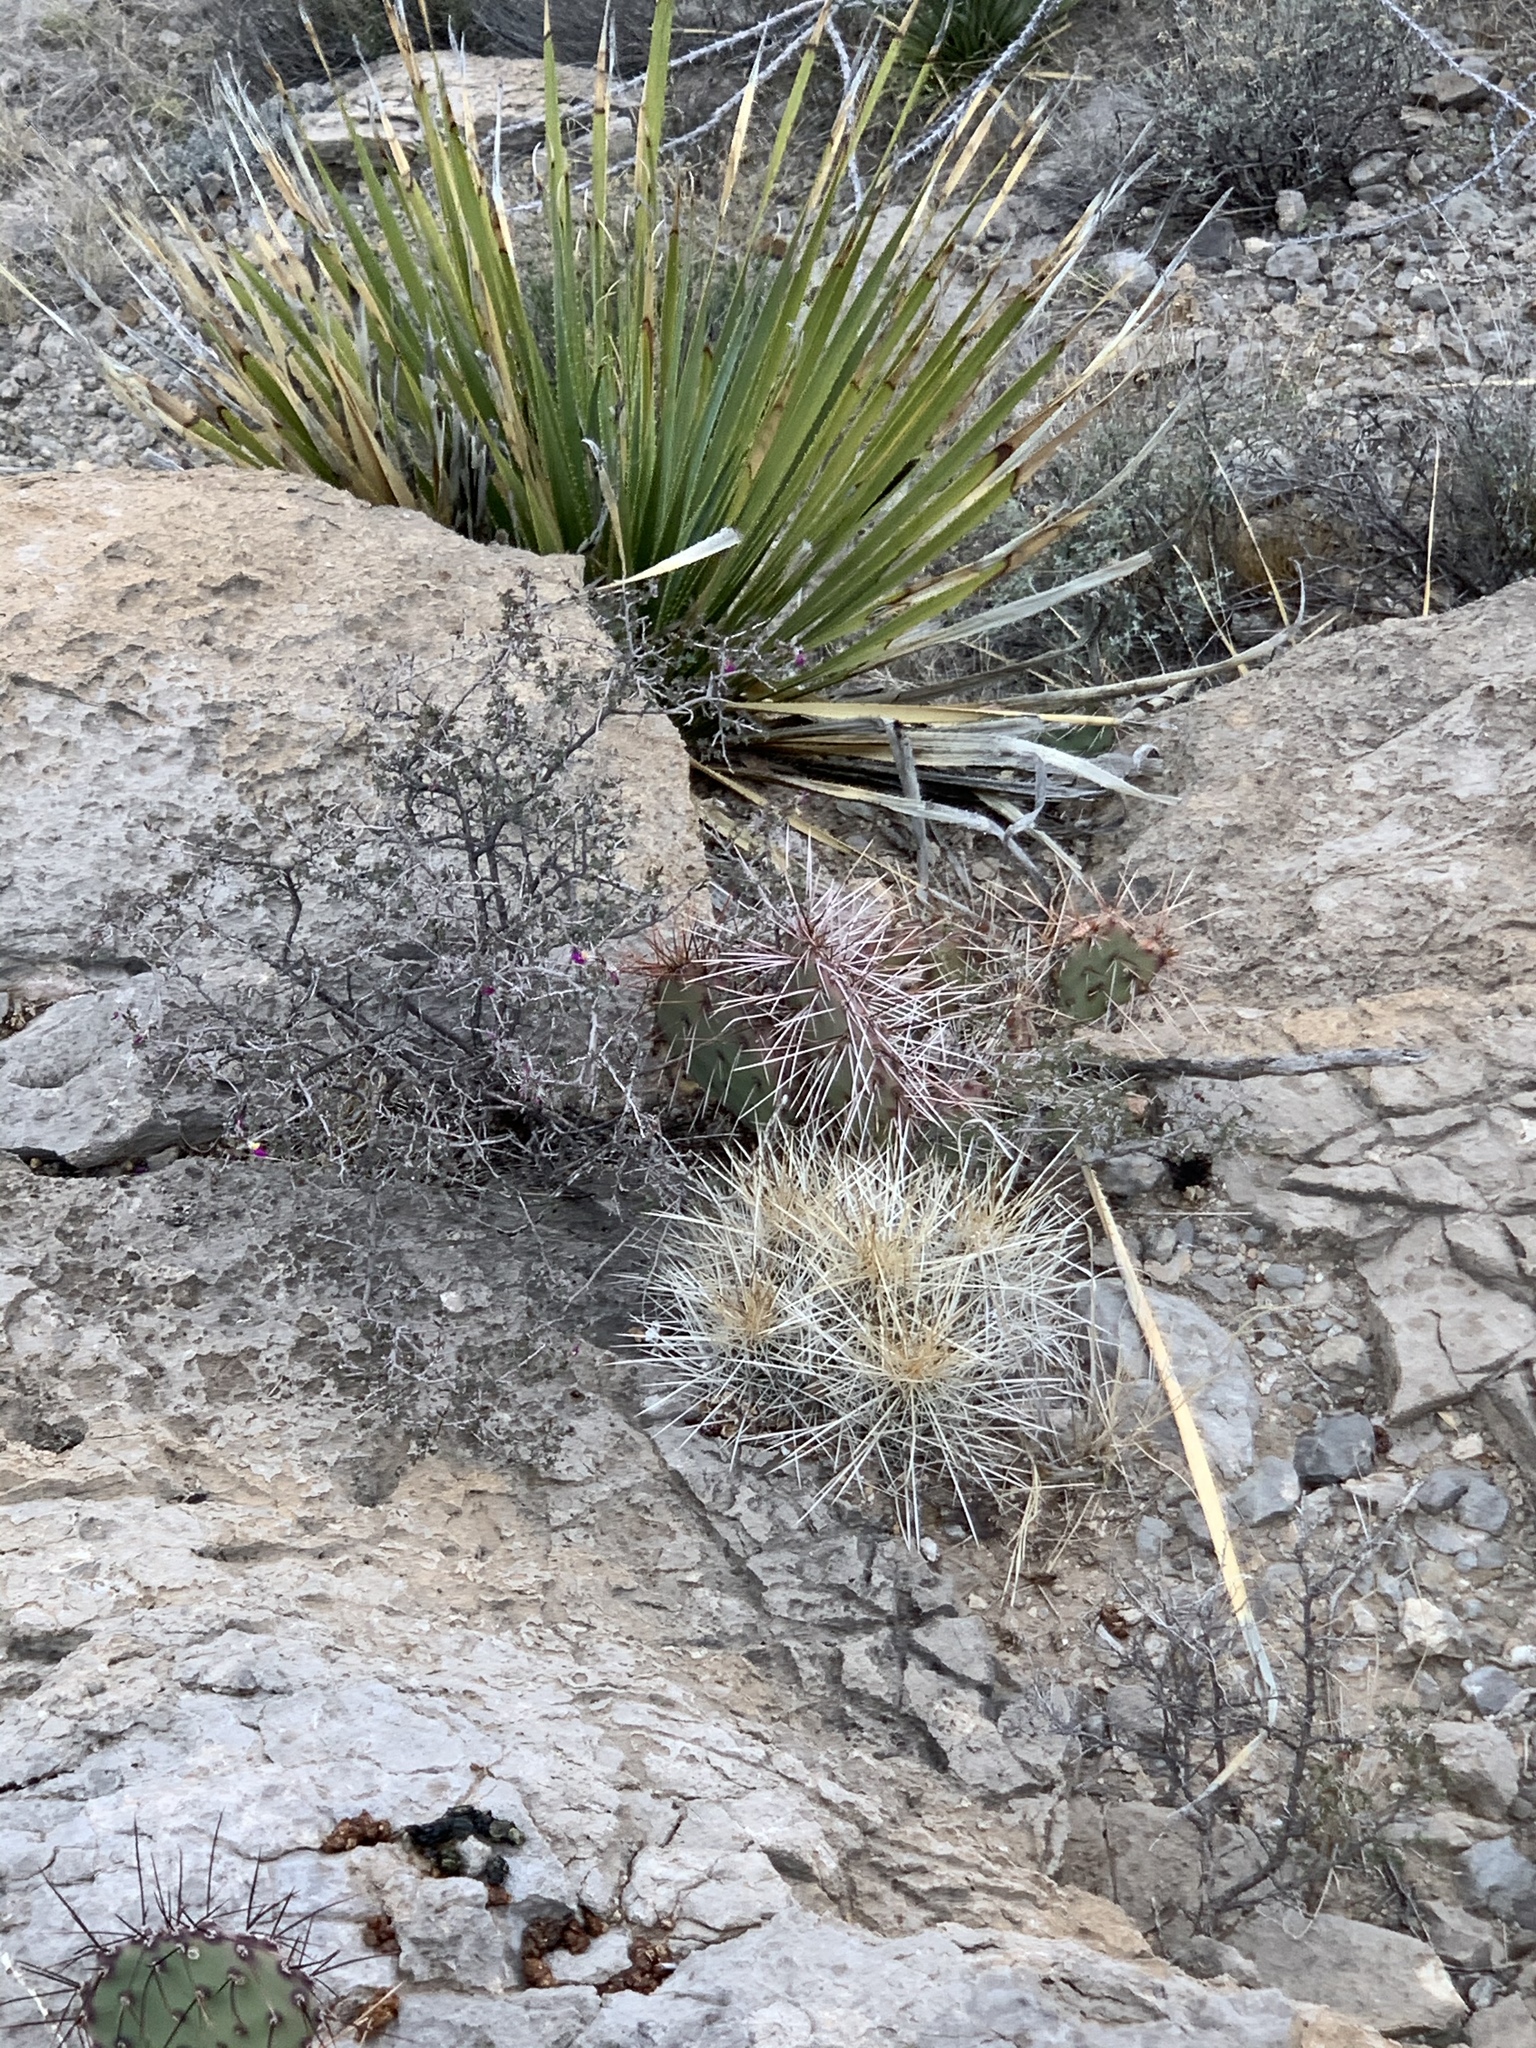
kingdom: Plantae
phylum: Tracheophyta
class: Magnoliopsida
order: Caryophyllales
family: Cactaceae
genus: Echinocereus
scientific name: Echinocereus stramineus
